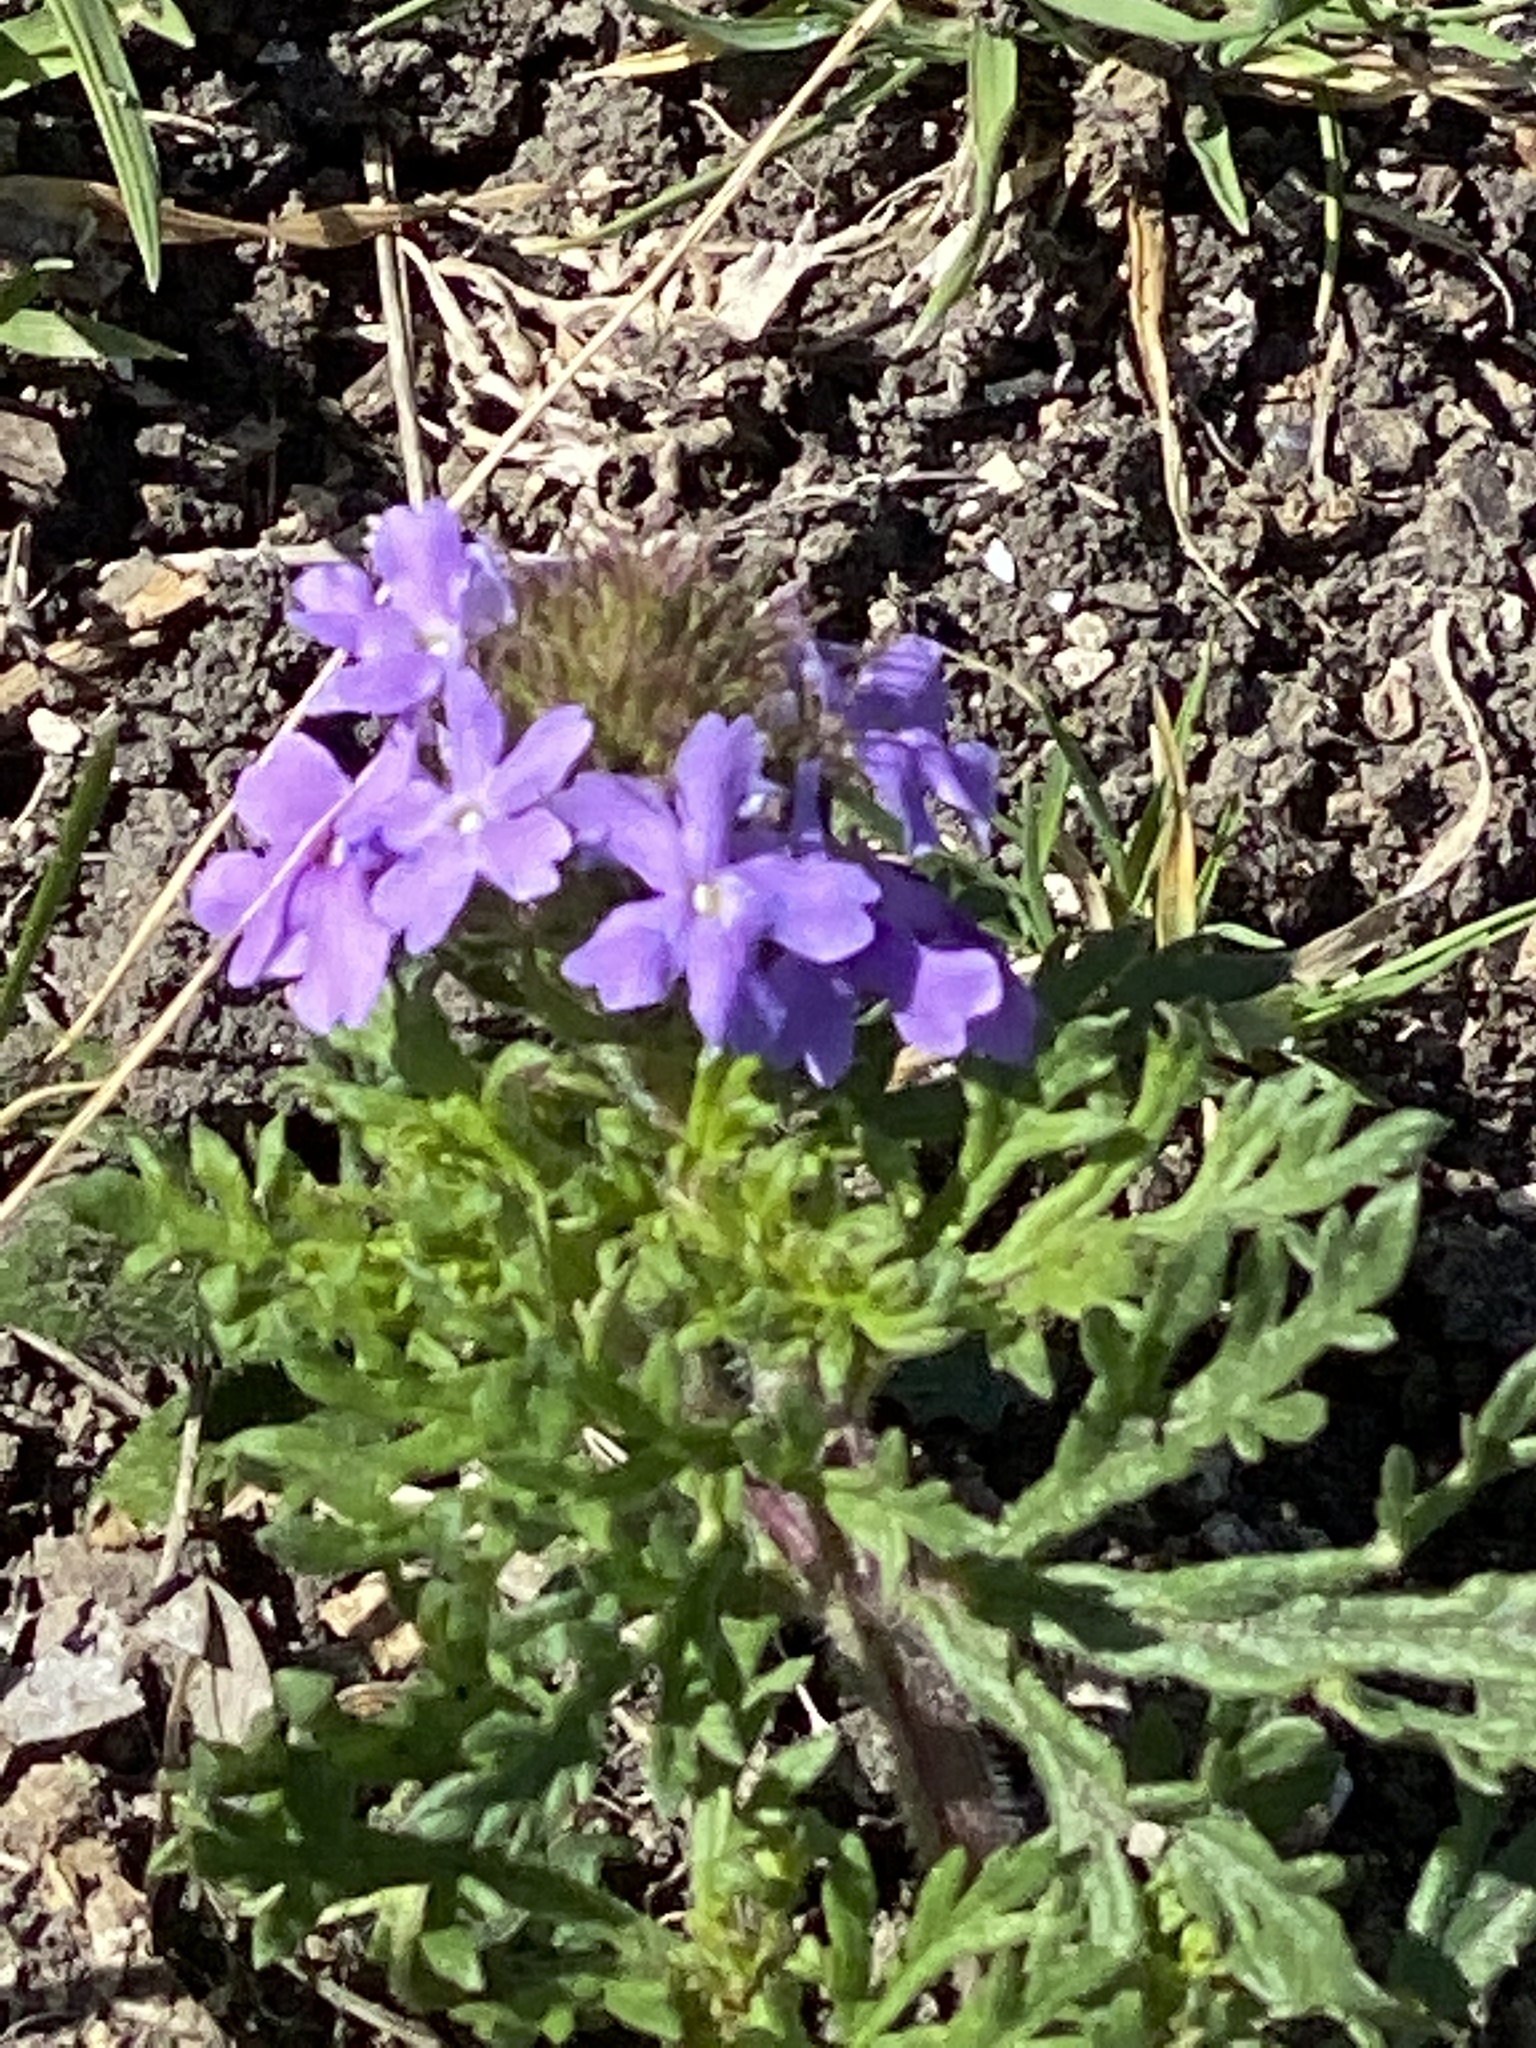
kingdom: Plantae
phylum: Tracheophyta
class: Magnoliopsida
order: Lamiales
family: Verbenaceae
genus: Verbena
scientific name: Verbena bipinnatifida
